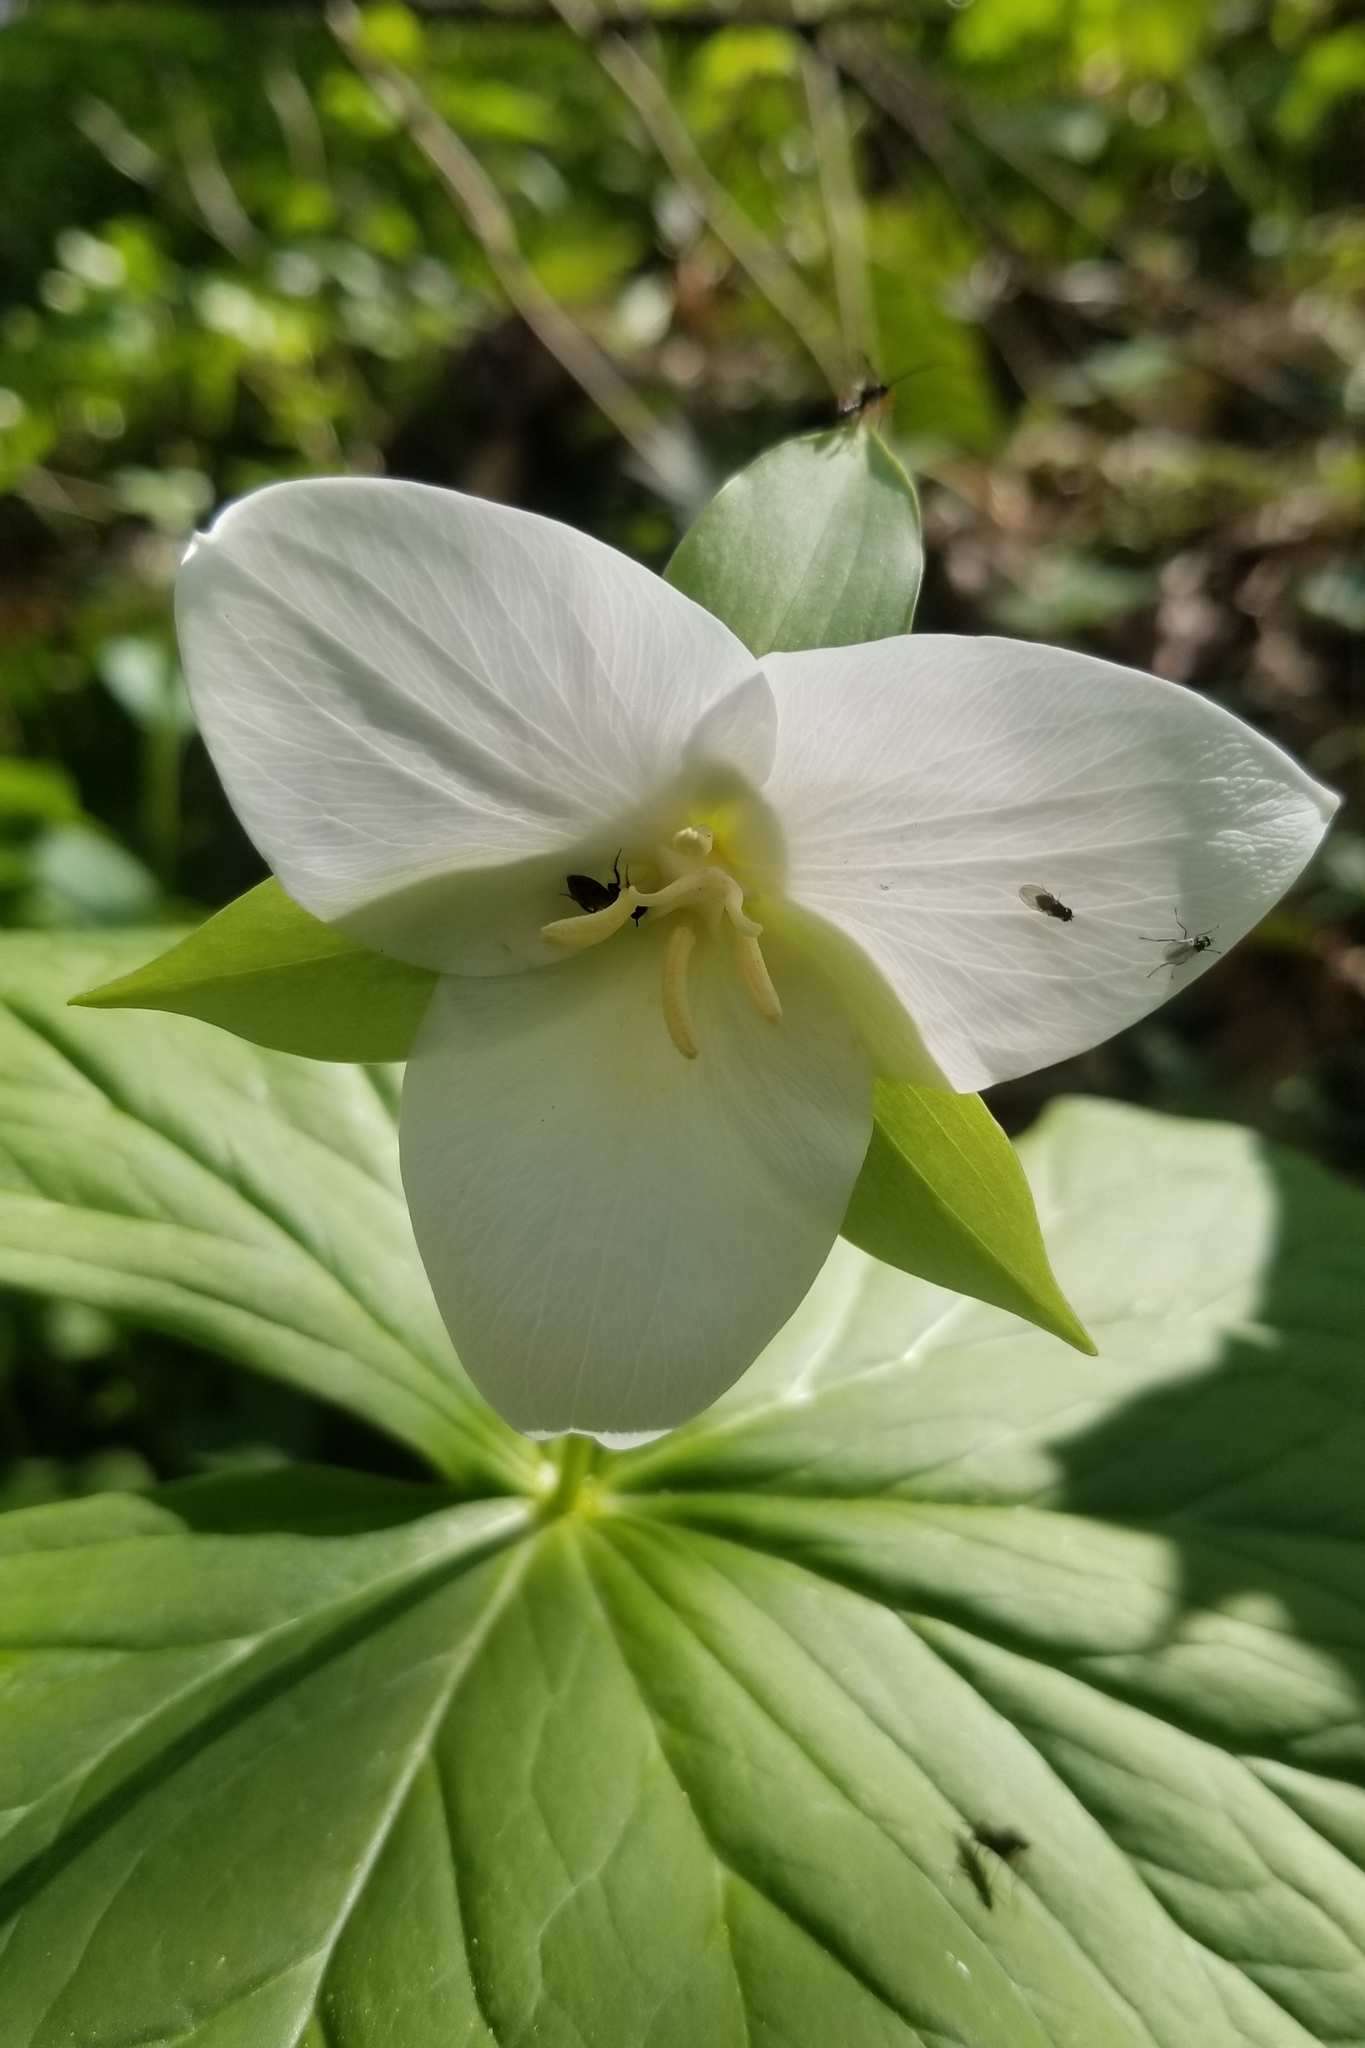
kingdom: Plantae
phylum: Tracheophyta
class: Liliopsida
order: Liliales
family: Melanthiaceae
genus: Trillium
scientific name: Trillium flexipes
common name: Drooping trillium
